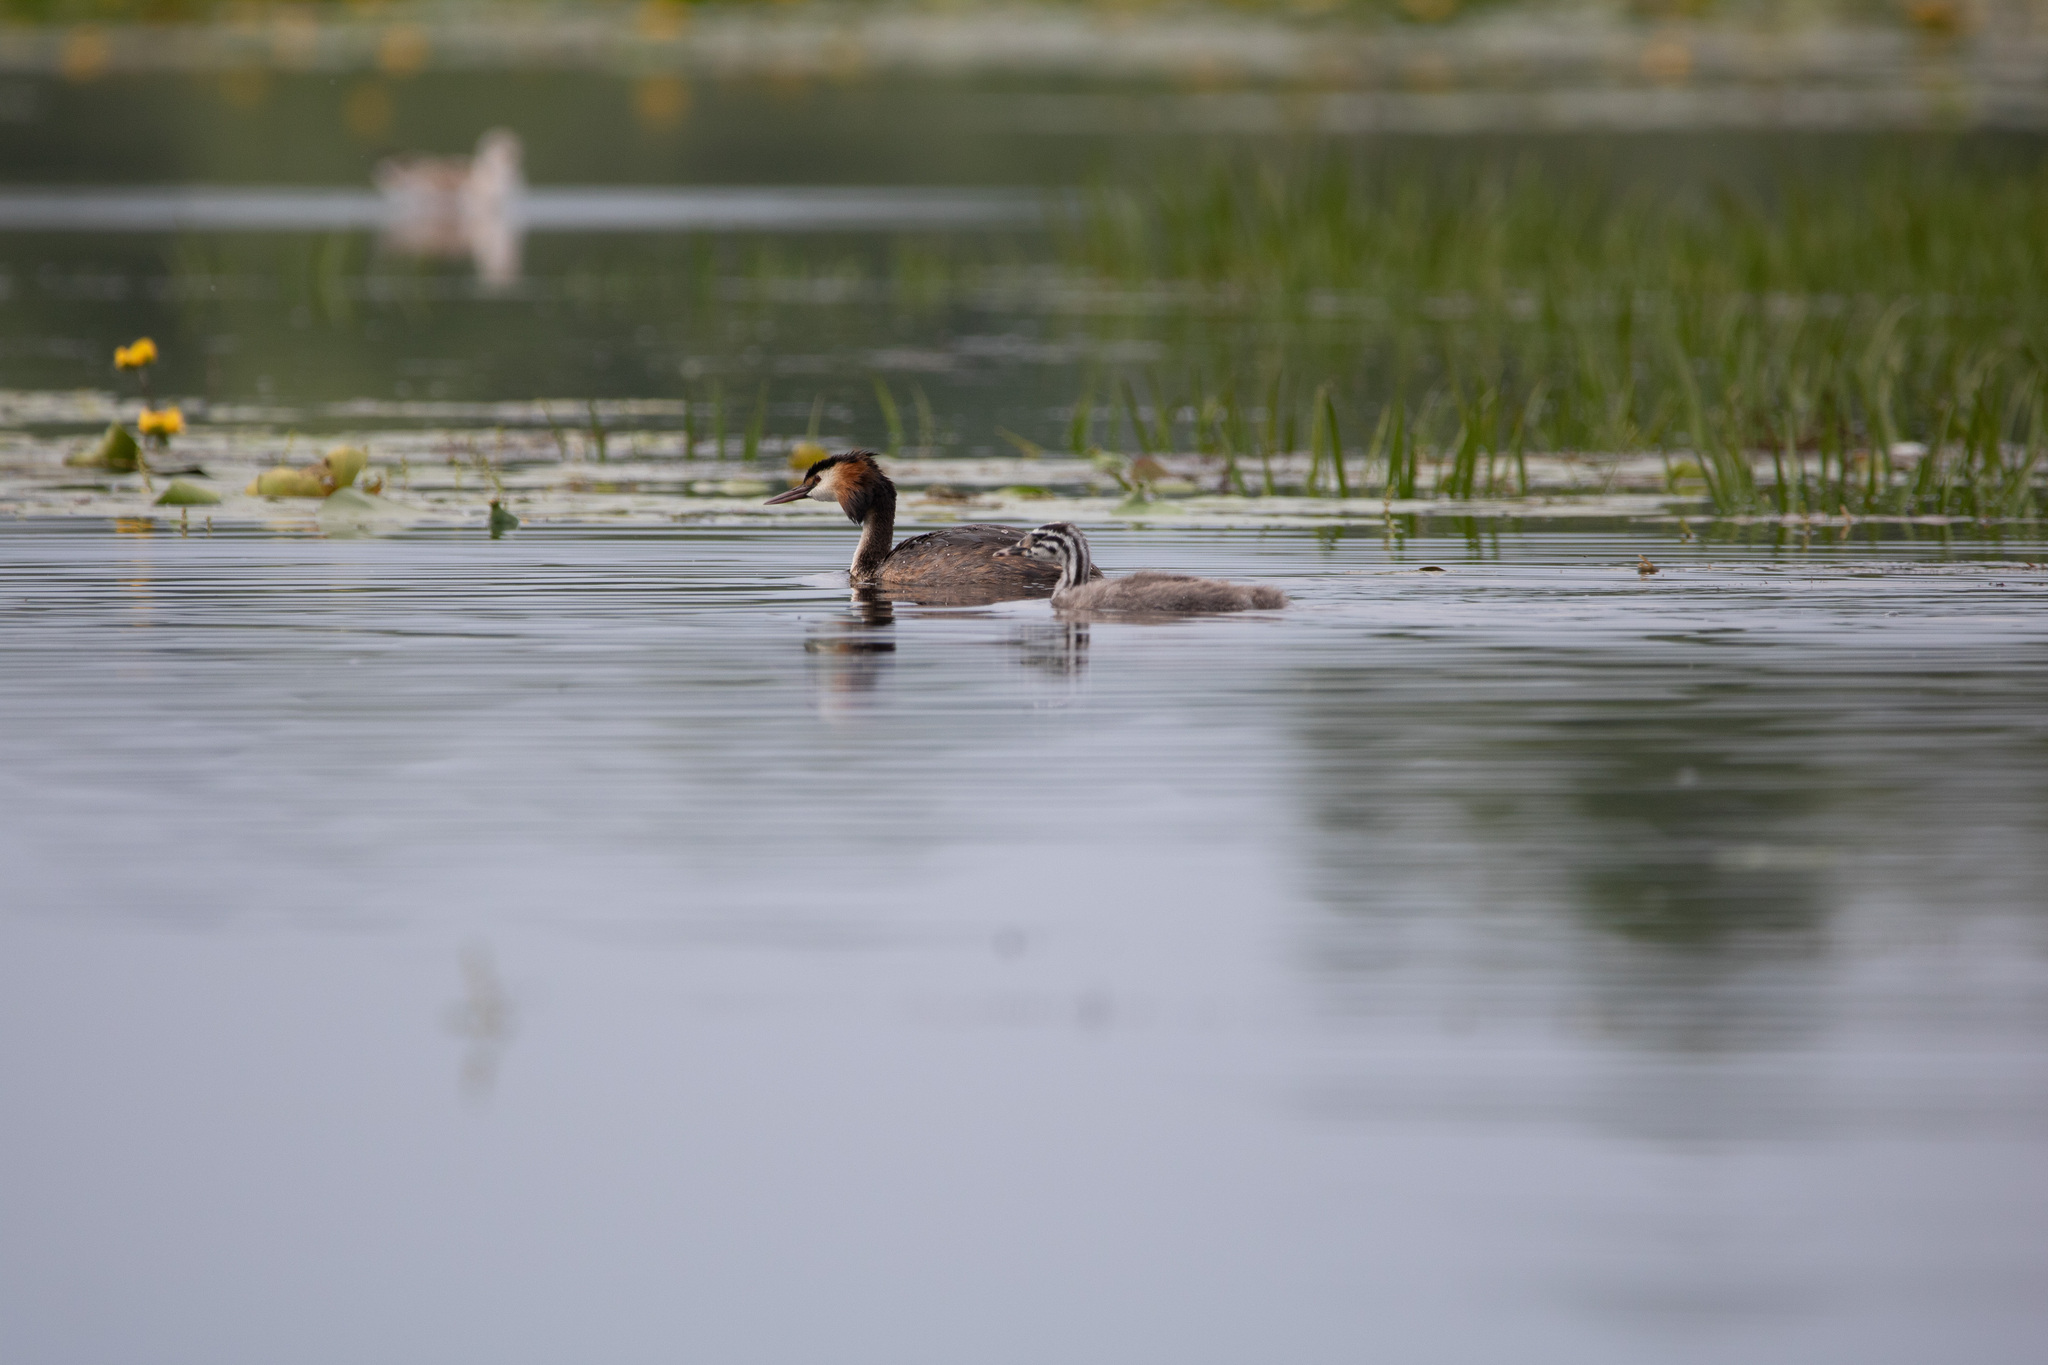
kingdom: Animalia
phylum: Chordata
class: Aves
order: Podicipediformes
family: Podicipedidae
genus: Podiceps
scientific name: Podiceps cristatus
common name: Great crested grebe
